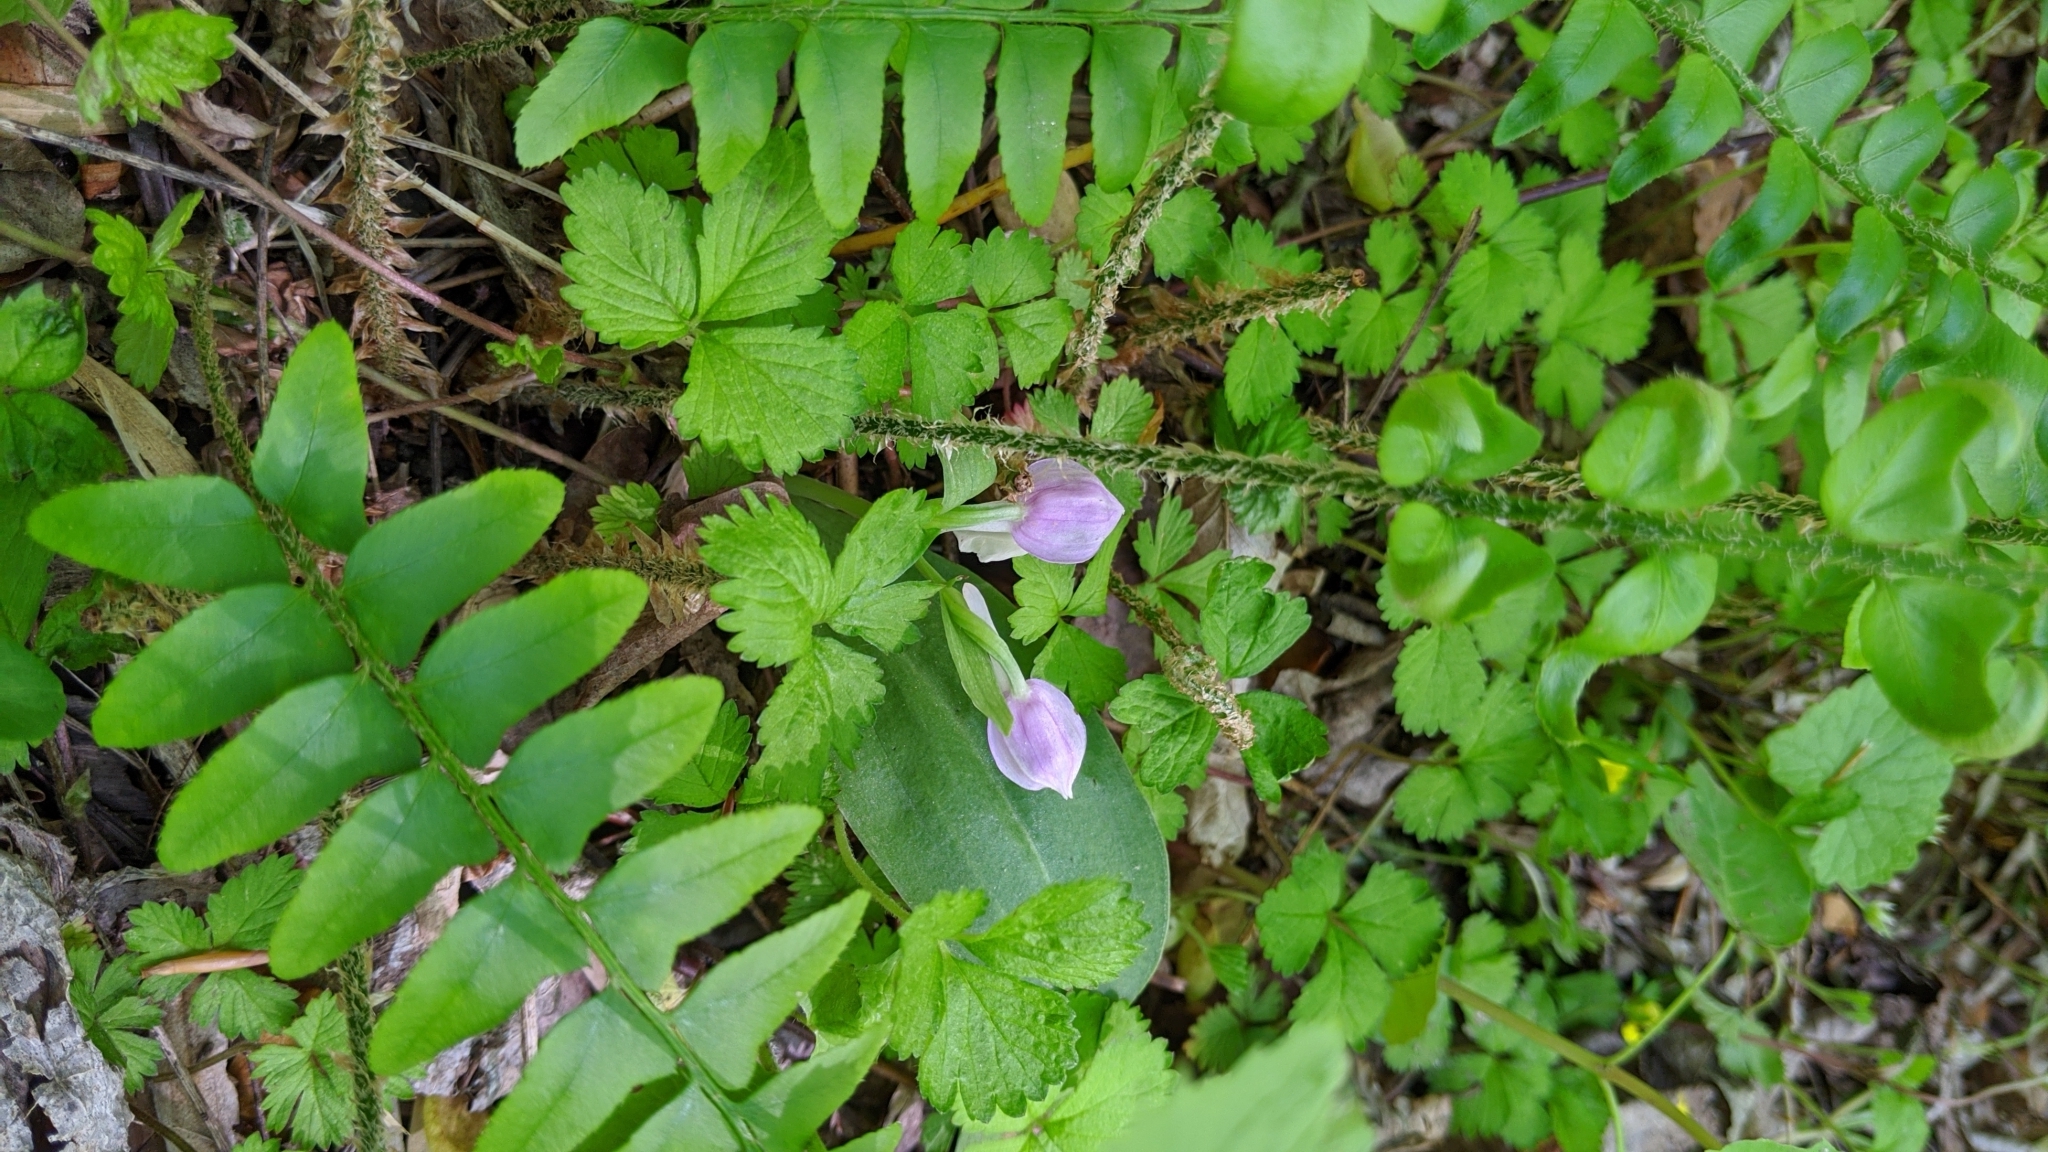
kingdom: Plantae
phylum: Tracheophyta
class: Liliopsida
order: Asparagales
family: Orchidaceae
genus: Galearis
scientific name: Galearis spectabilis
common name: Purple-hooded orchis
